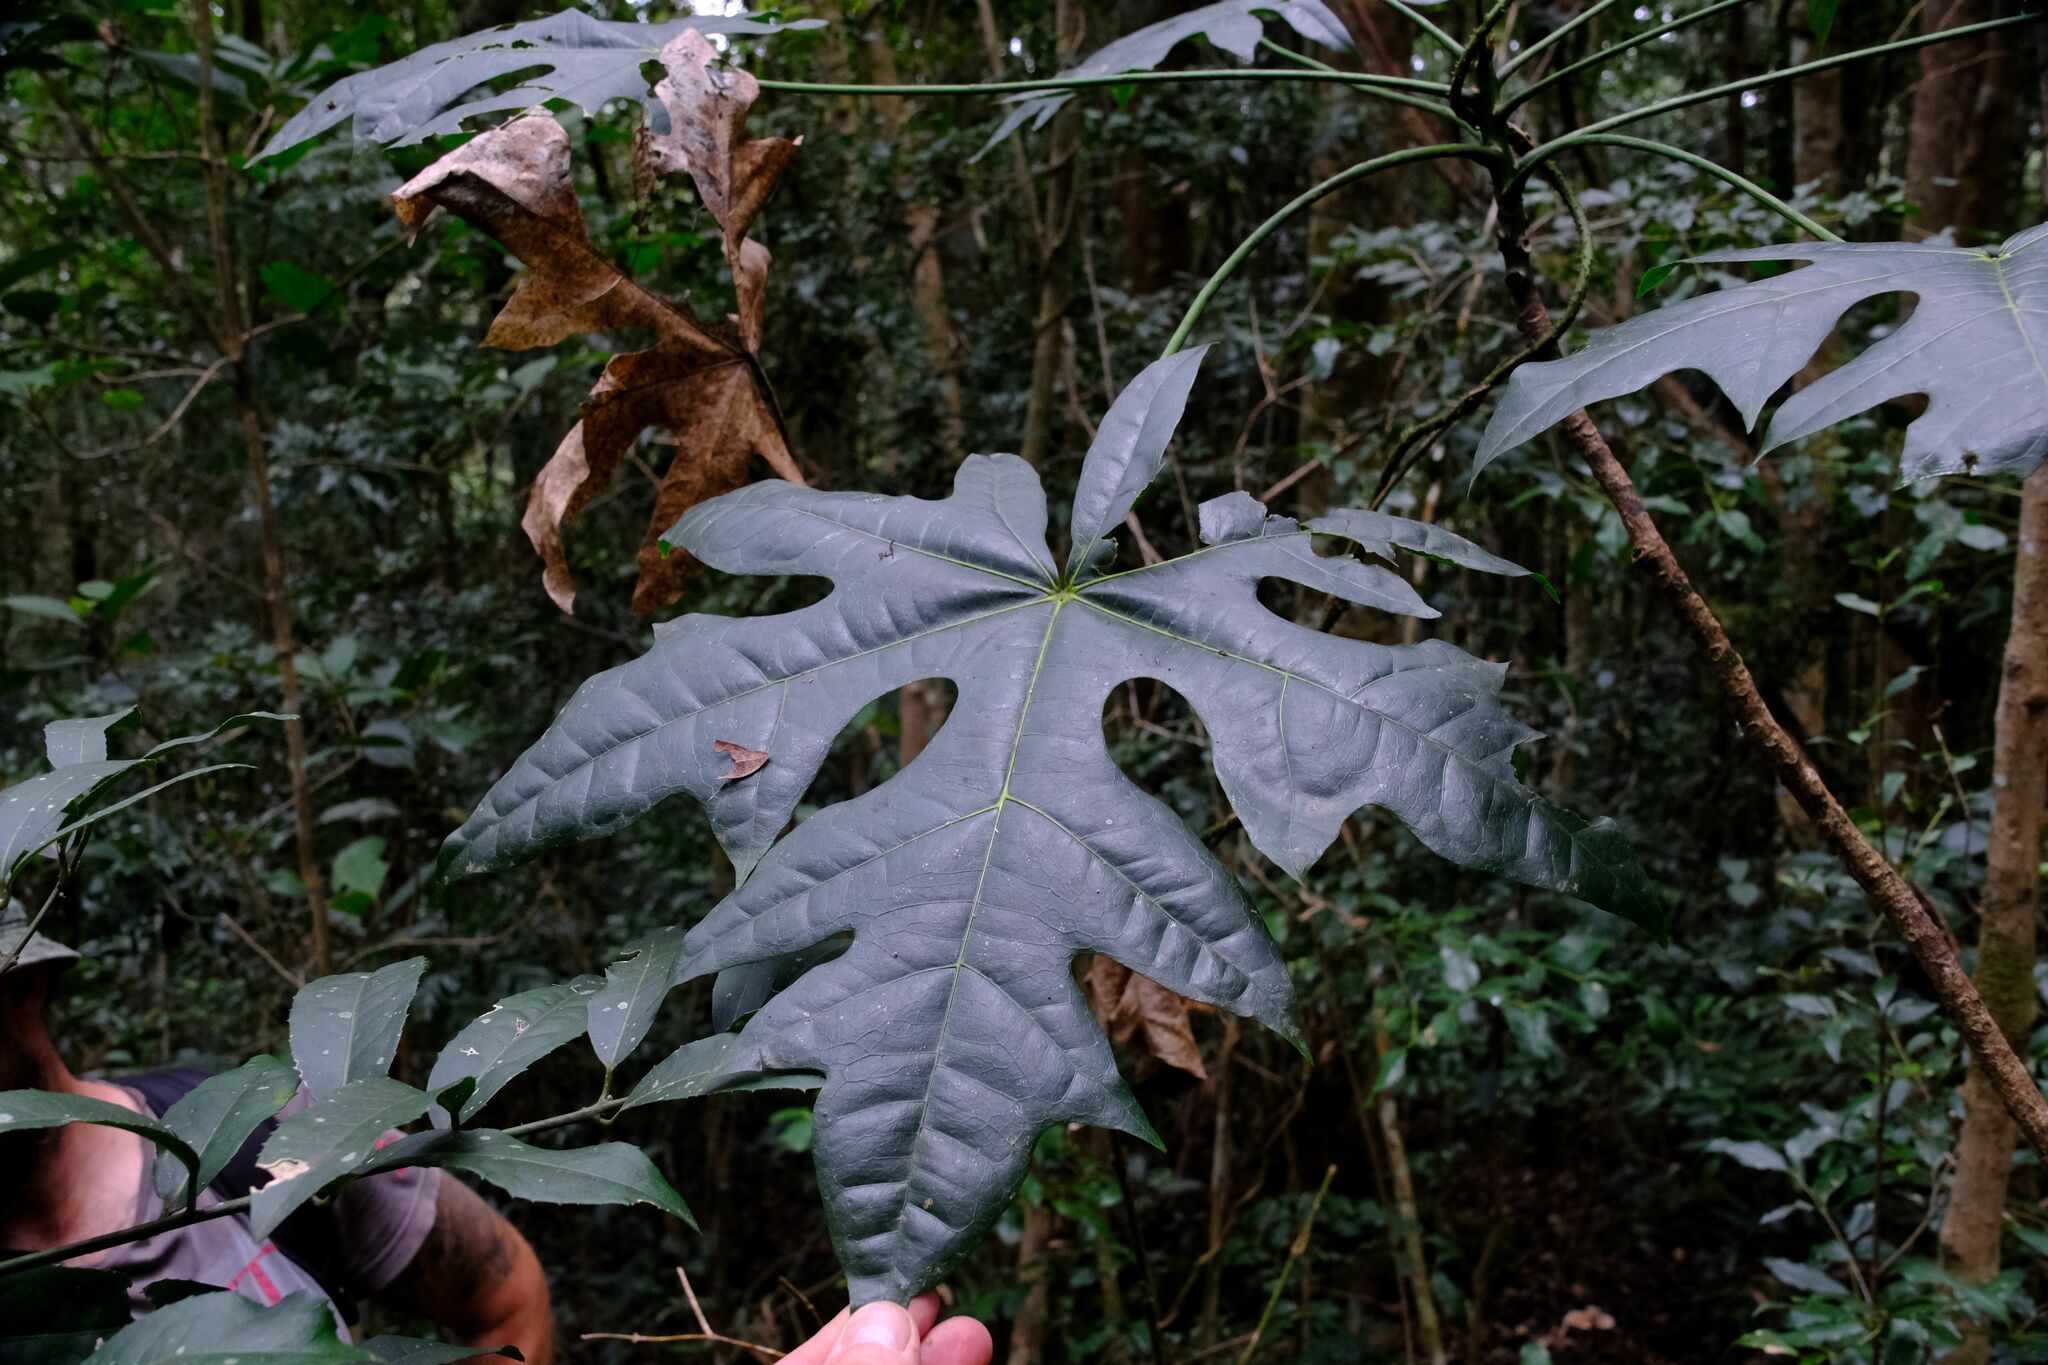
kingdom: Plantae
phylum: Tracheophyta
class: Magnoliopsida
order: Malvales
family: Malvaceae
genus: Brachychiton
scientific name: Brachychiton acerifolius
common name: Illawarra flame tree
